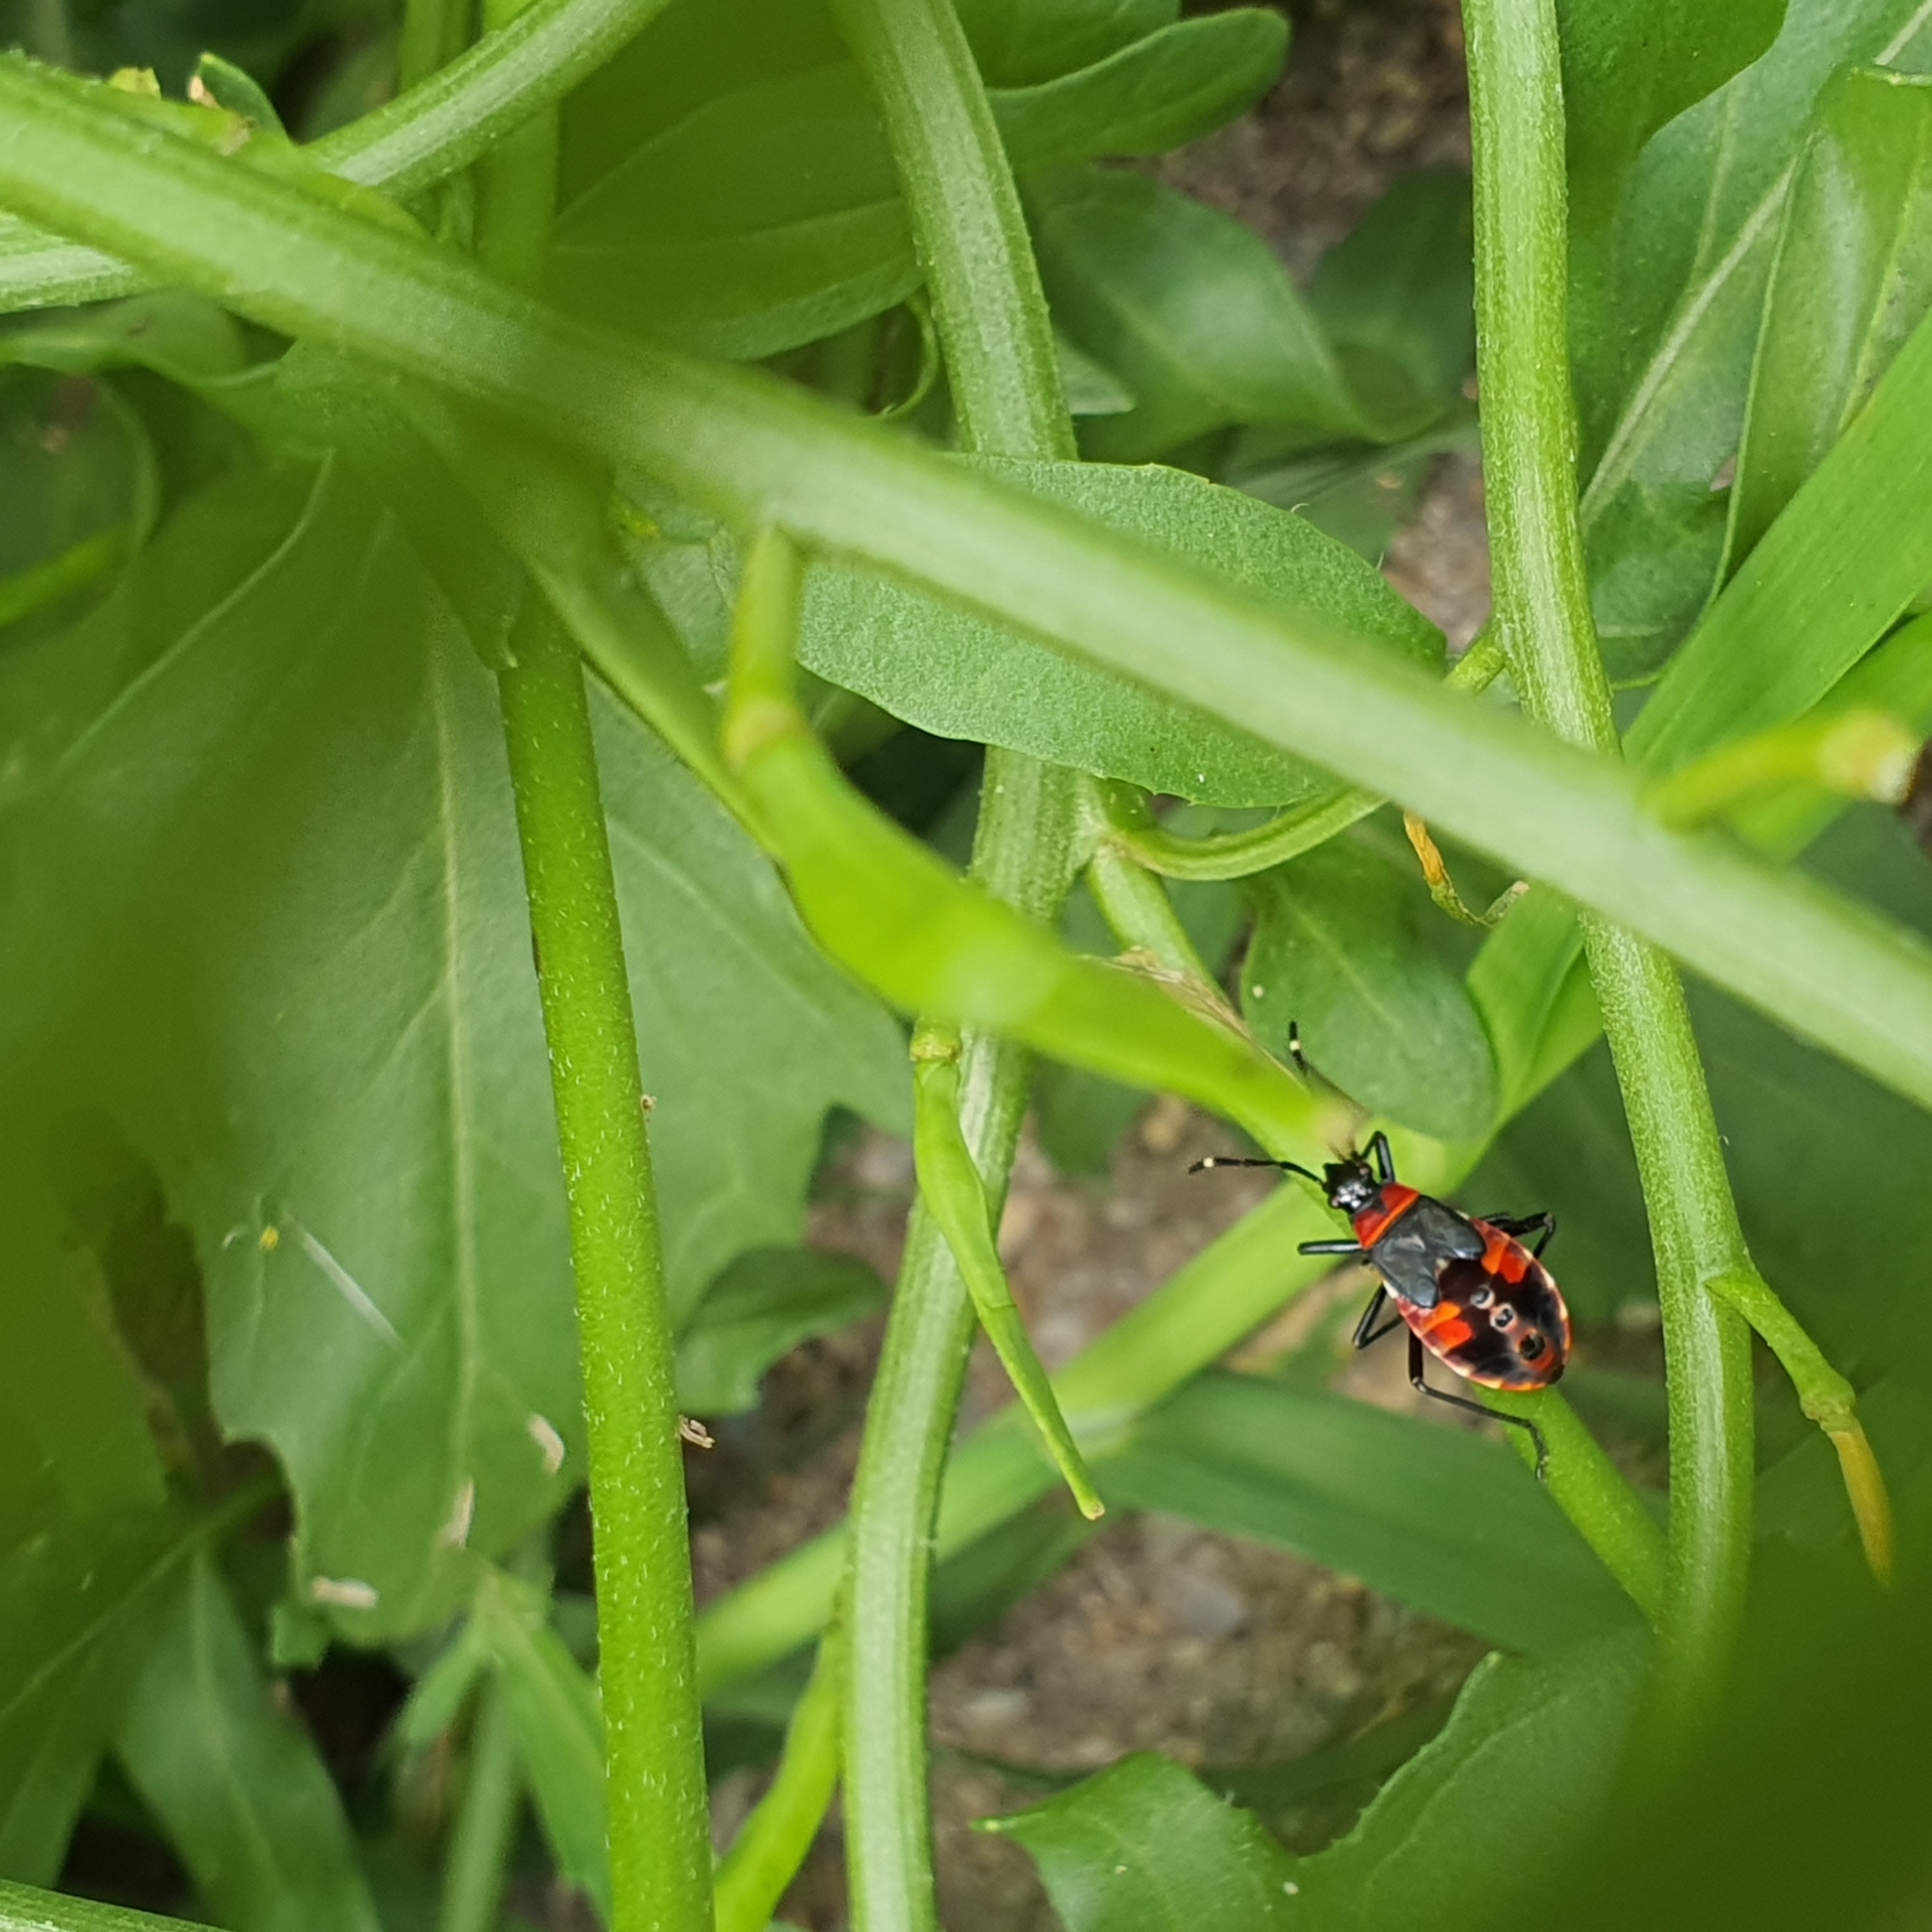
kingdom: Animalia
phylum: Arthropoda
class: Insecta
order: Hemiptera
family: Pyrrhocoridae
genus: Dindymus
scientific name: Dindymus
